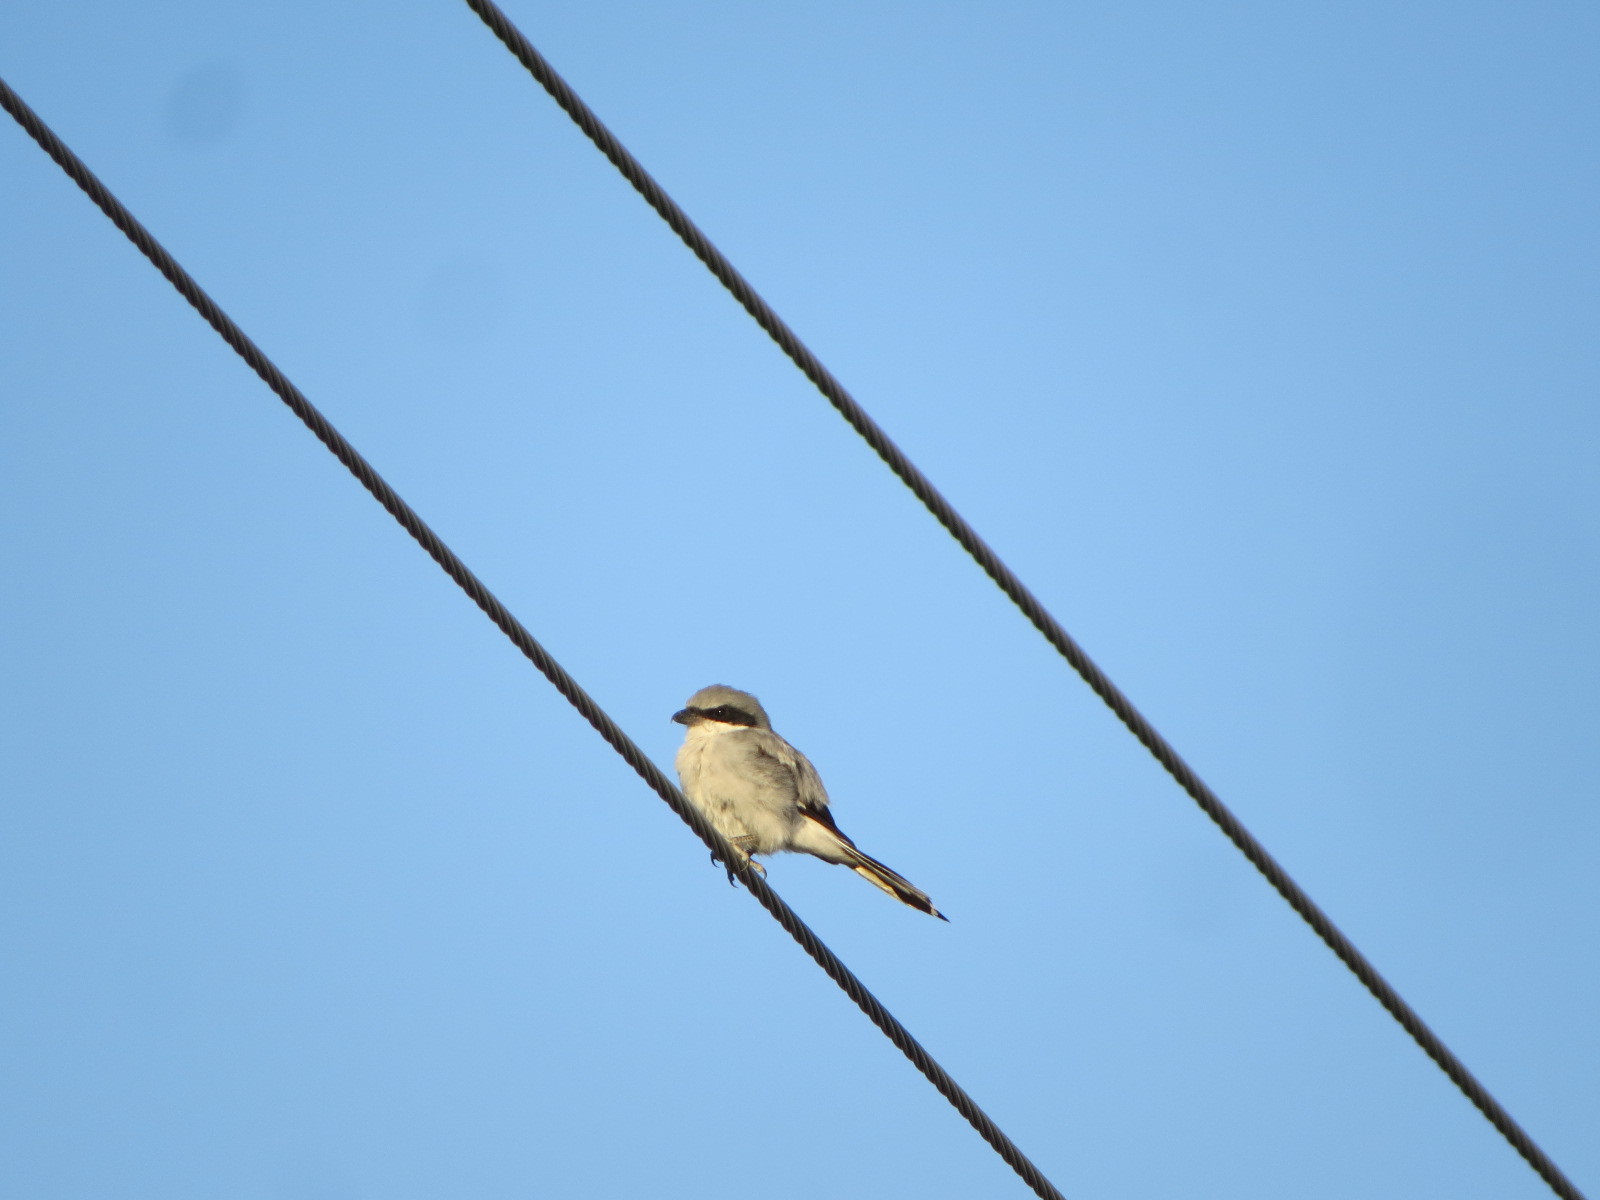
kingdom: Animalia
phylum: Chordata
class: Aves
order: Passeriformes
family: Laniidae
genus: Lanius
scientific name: Lanius ludovicianus
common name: Loggerhead shrike
